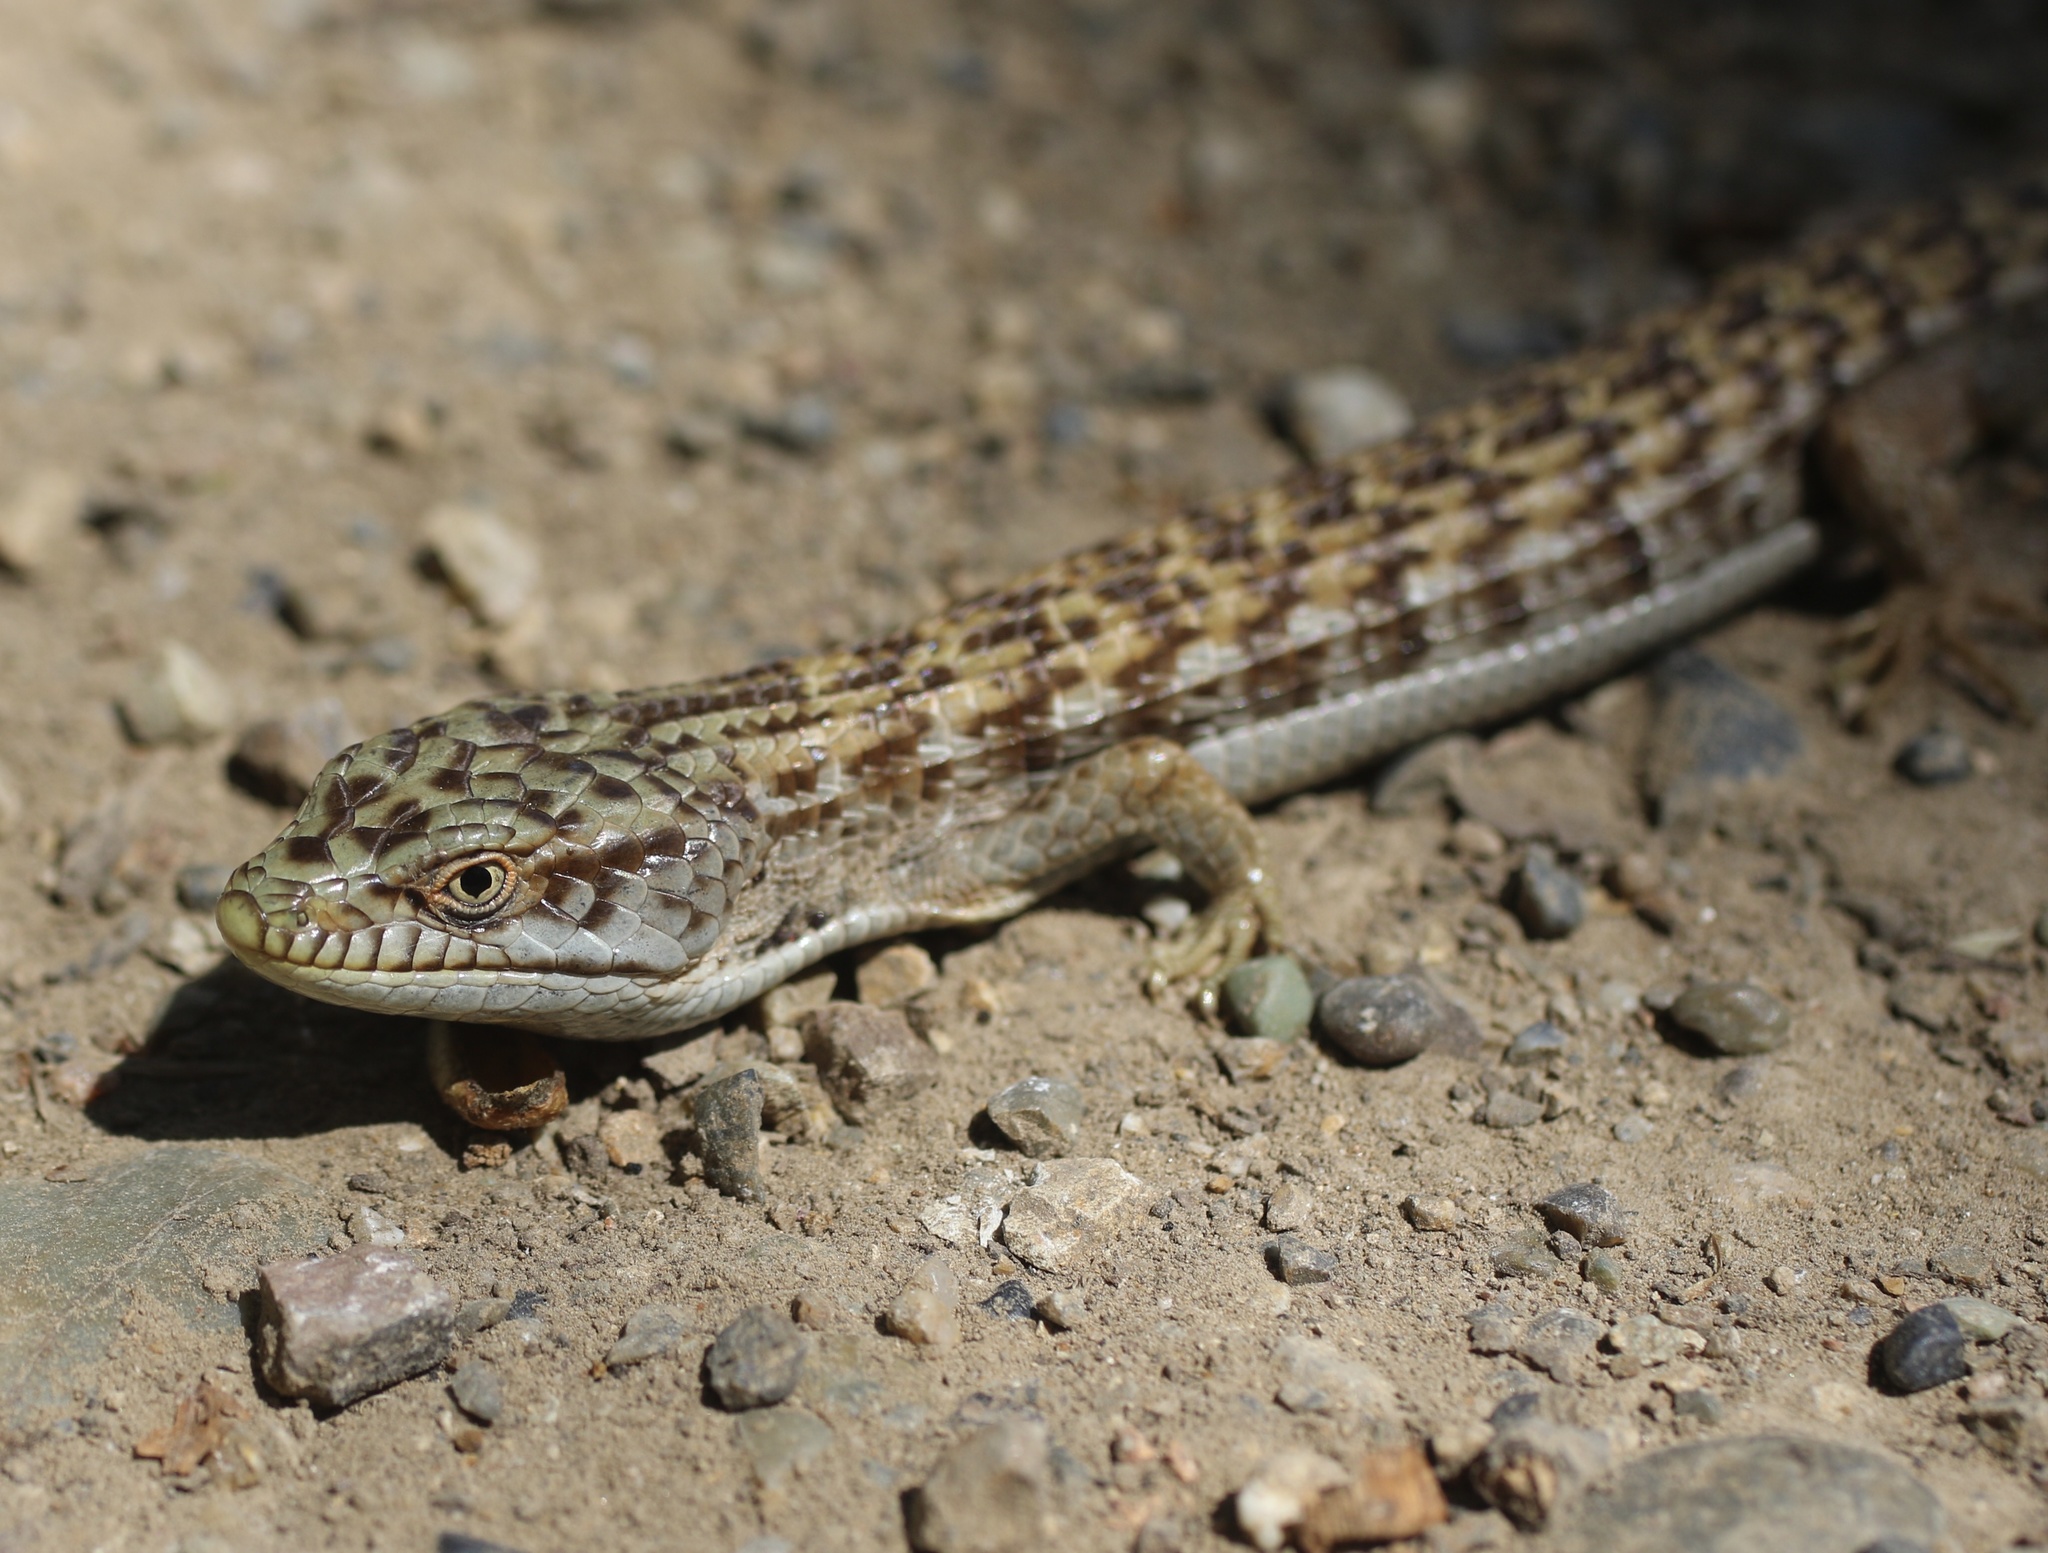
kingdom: Animalia
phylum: Chordata
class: Squamata
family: Anguidae
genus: Elgaria
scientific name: Elgaria multicarinata
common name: Southern alligator lizard
